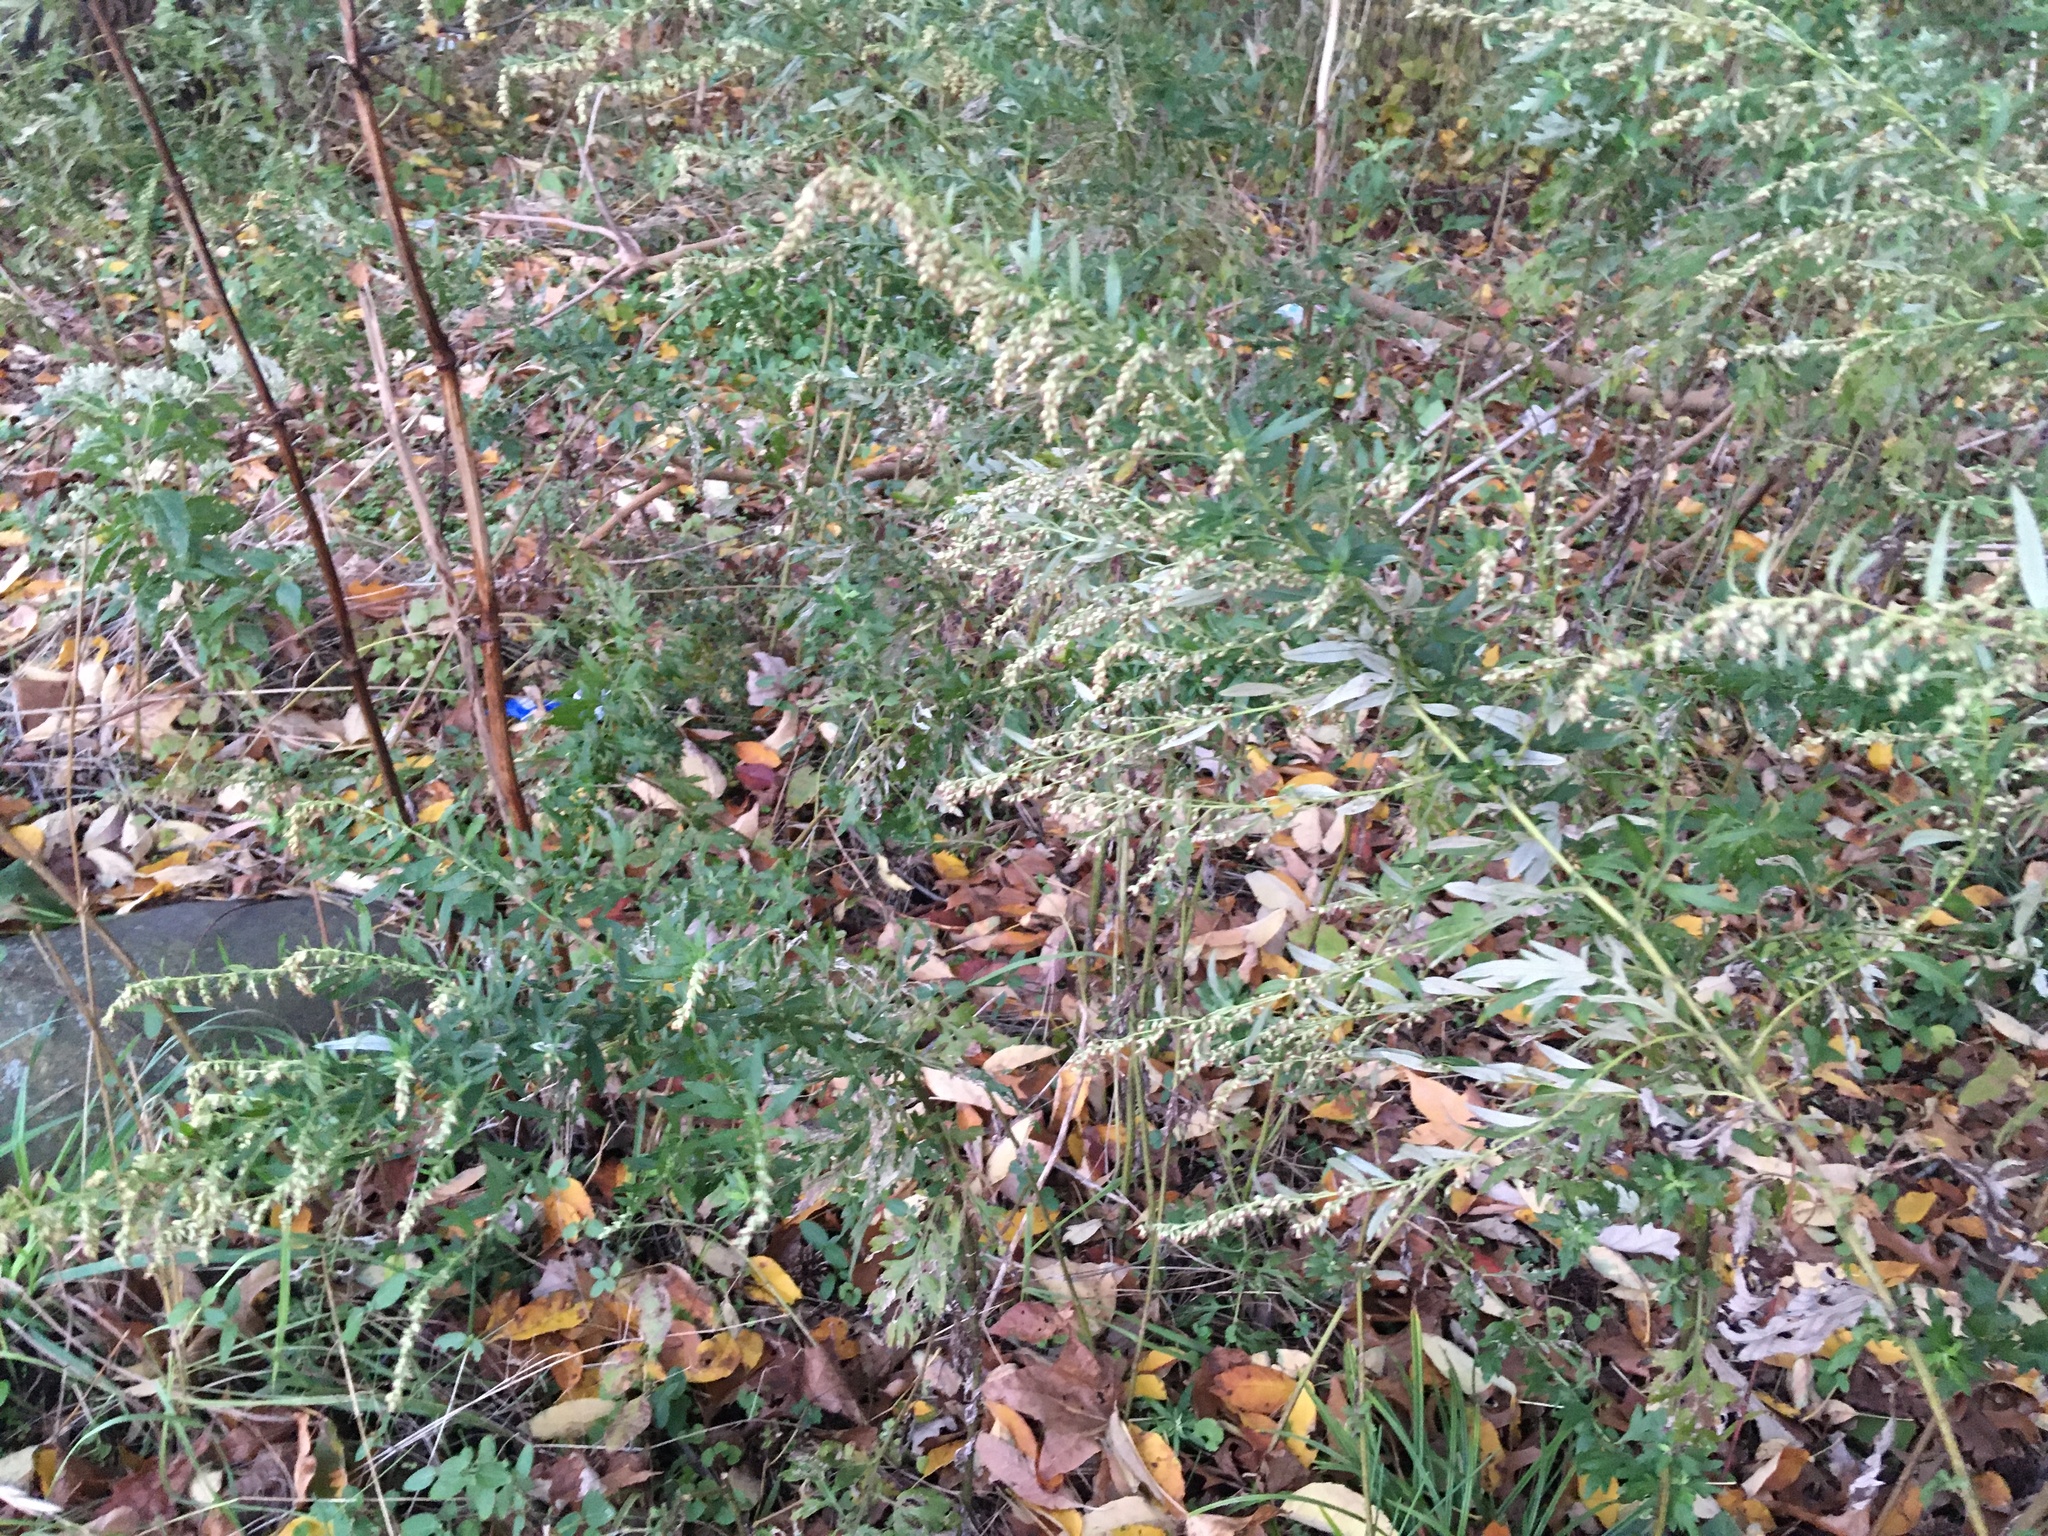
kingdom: Plantae
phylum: Tracheophyta
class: Magnoliopsida
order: Asterales
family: Asteraceae
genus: Artemisia
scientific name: Artemisia vulgaris
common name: Mugwort
